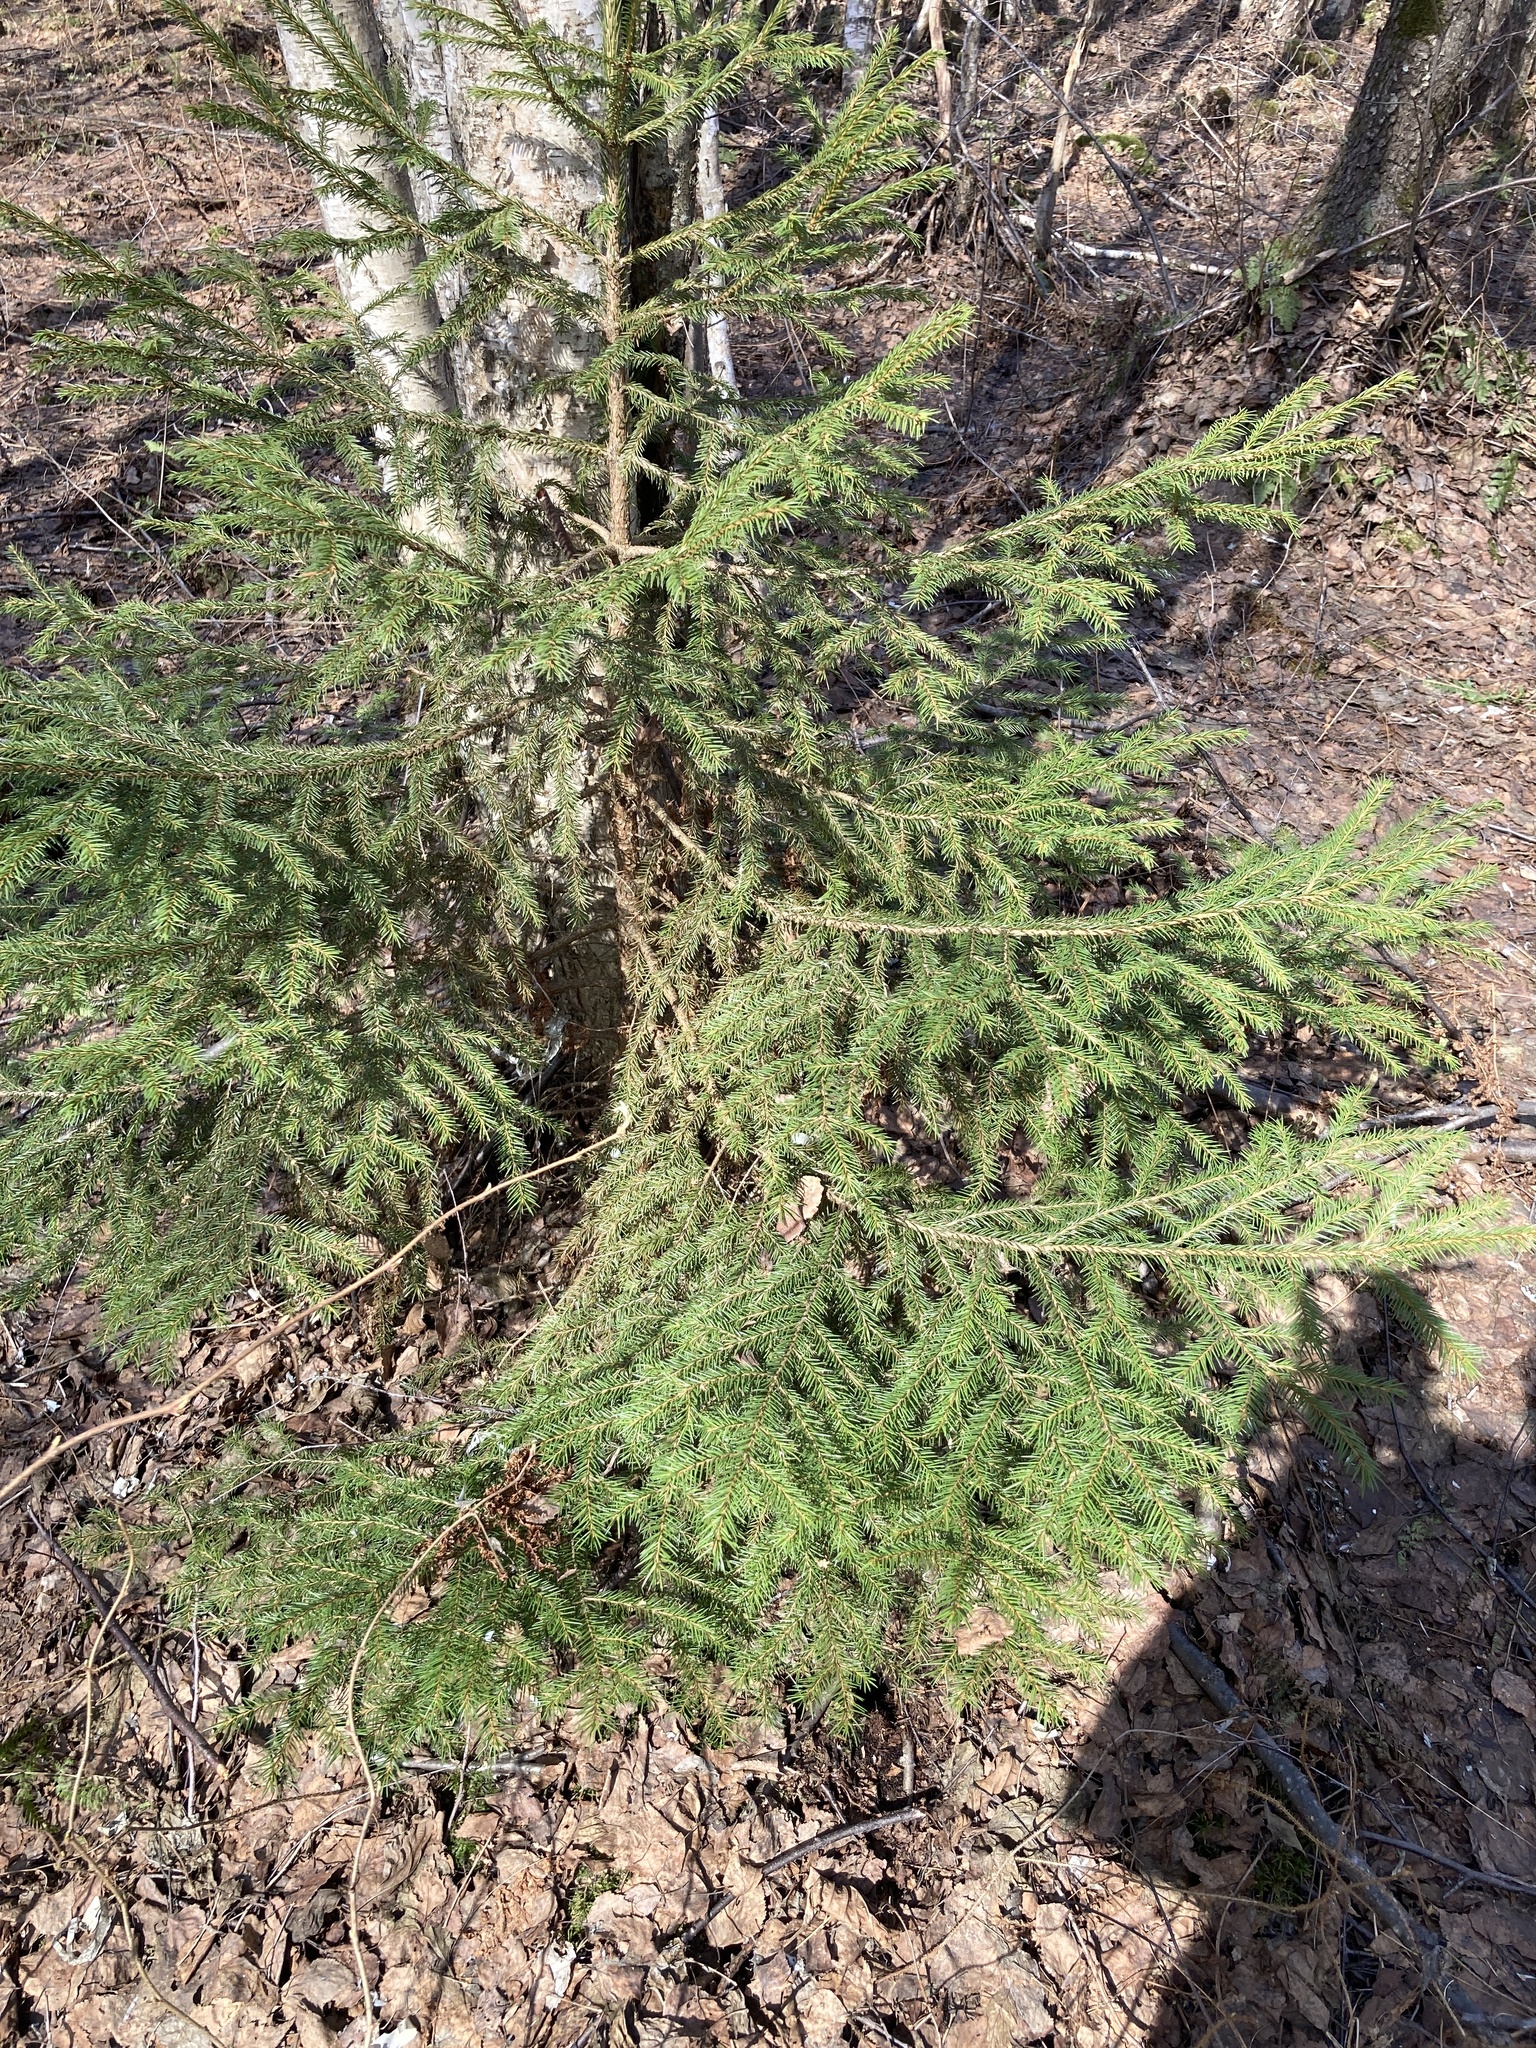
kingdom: Plantae
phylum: Tracheophyta
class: Pinopsida
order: Pinales
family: Pinaceae
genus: Picea
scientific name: Picea abies
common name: Norway spruce
